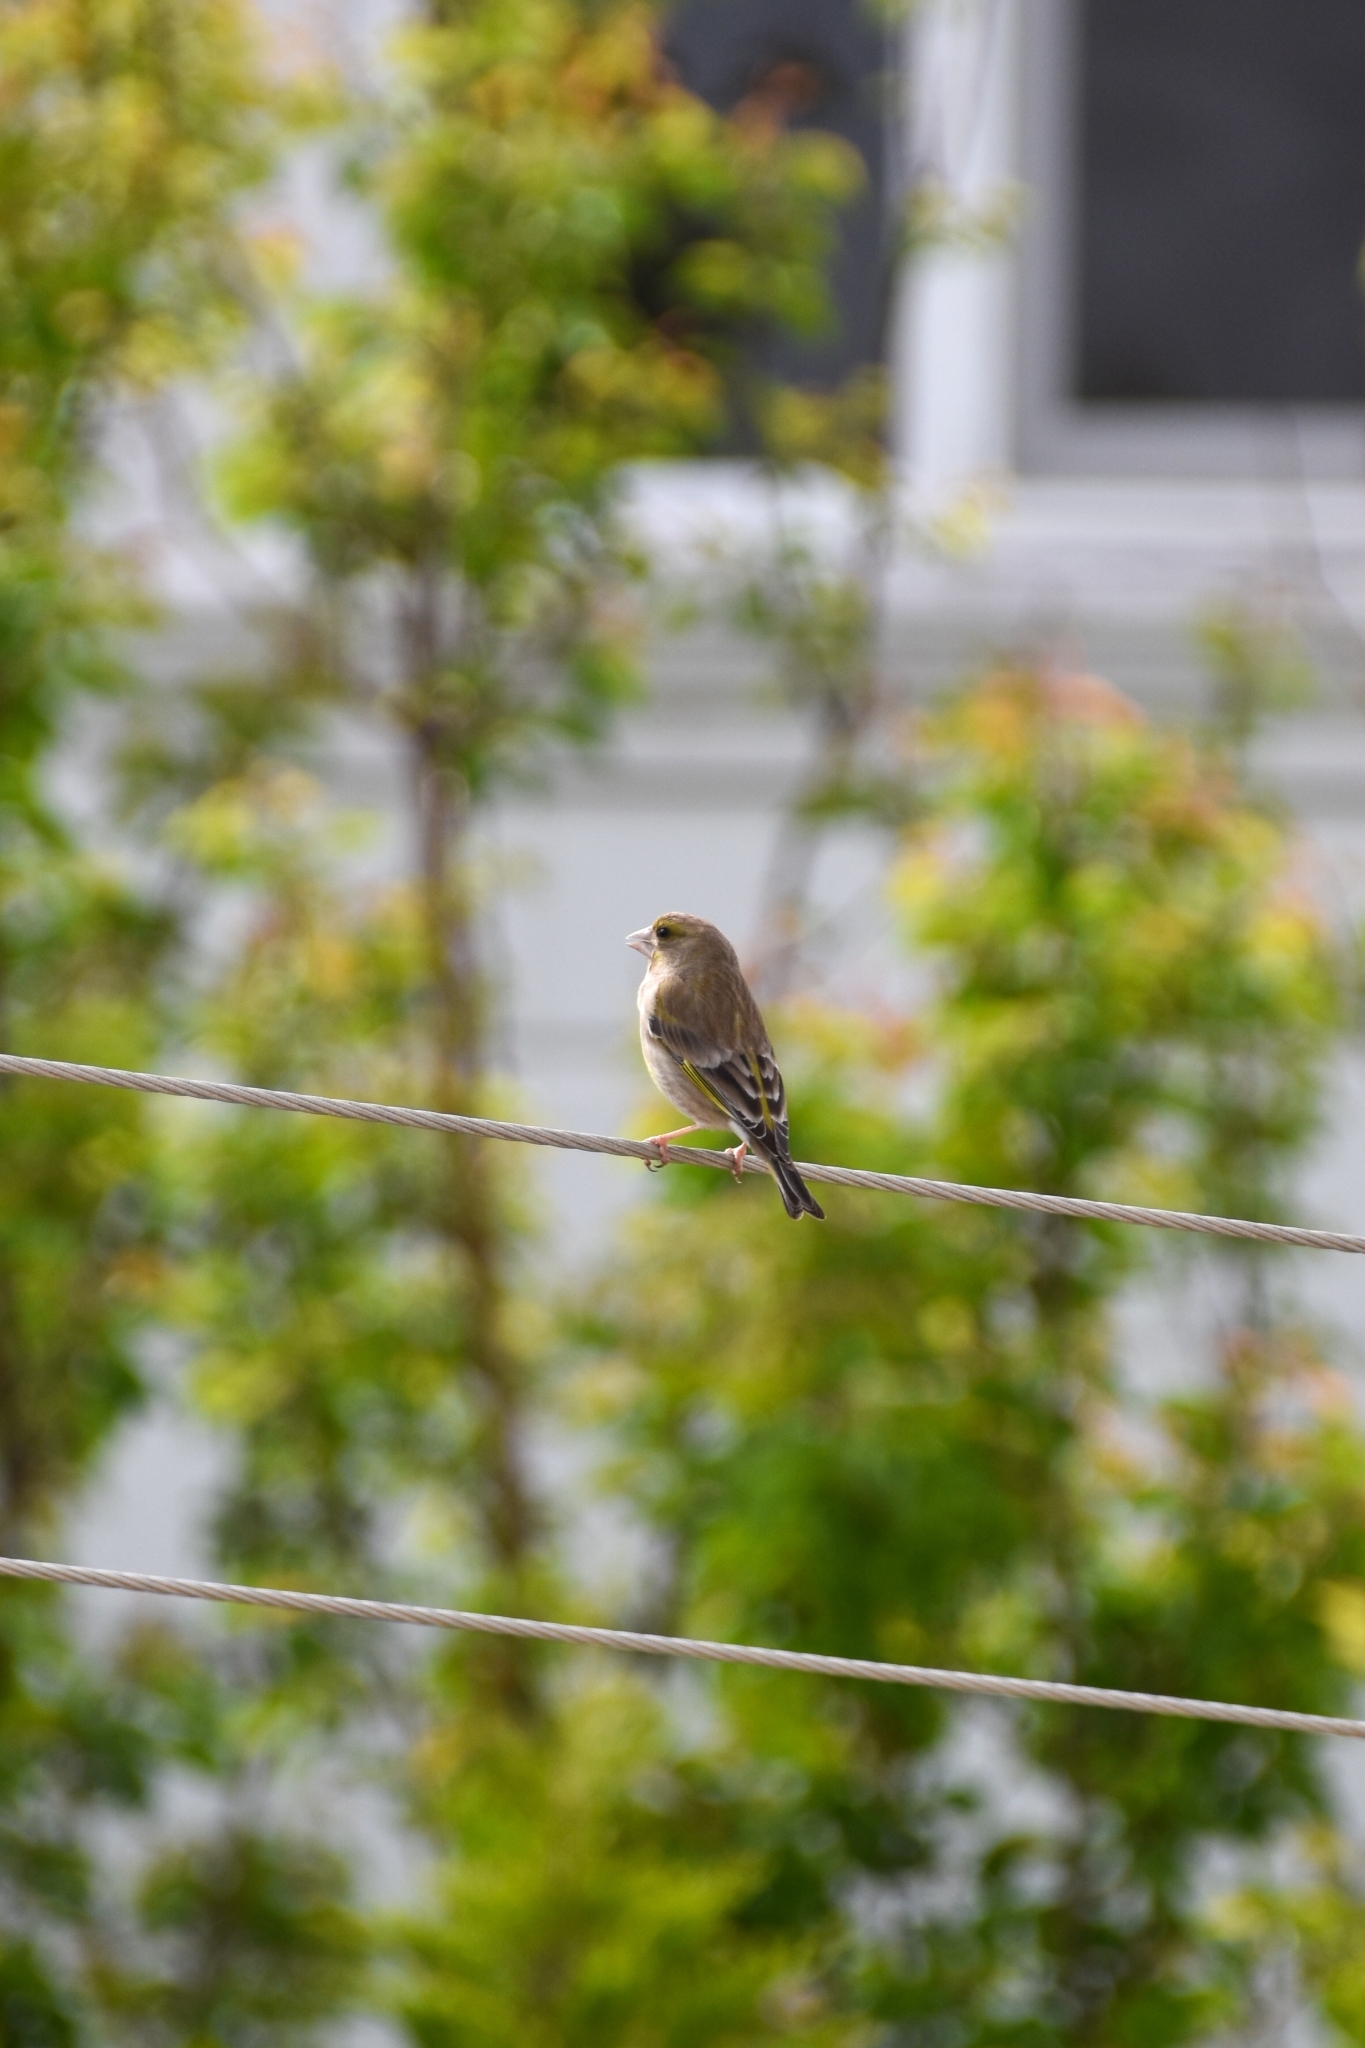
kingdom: Plantae
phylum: Tracheophyta
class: Liliopsida
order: Poales
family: Poaceae
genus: Chloris
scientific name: Chloris chloris
